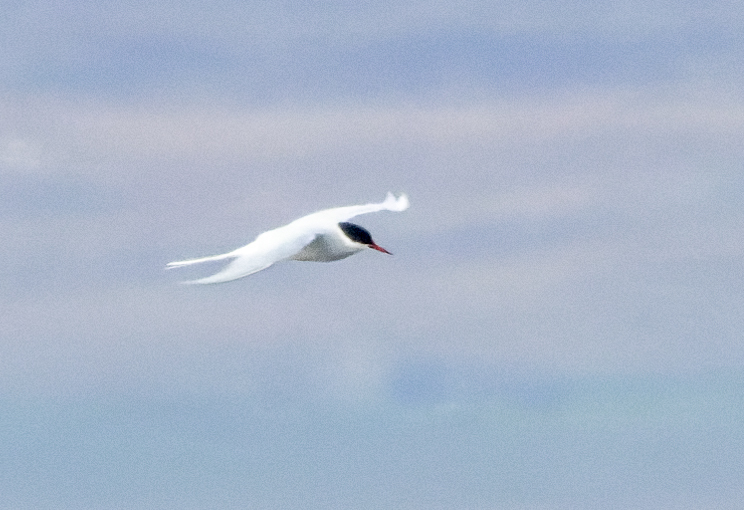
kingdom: Animalia
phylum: Chordata
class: Aves
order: Charadriiformes
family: Laridae
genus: Sterna
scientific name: Sterna paradisaea
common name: Arctic tern
